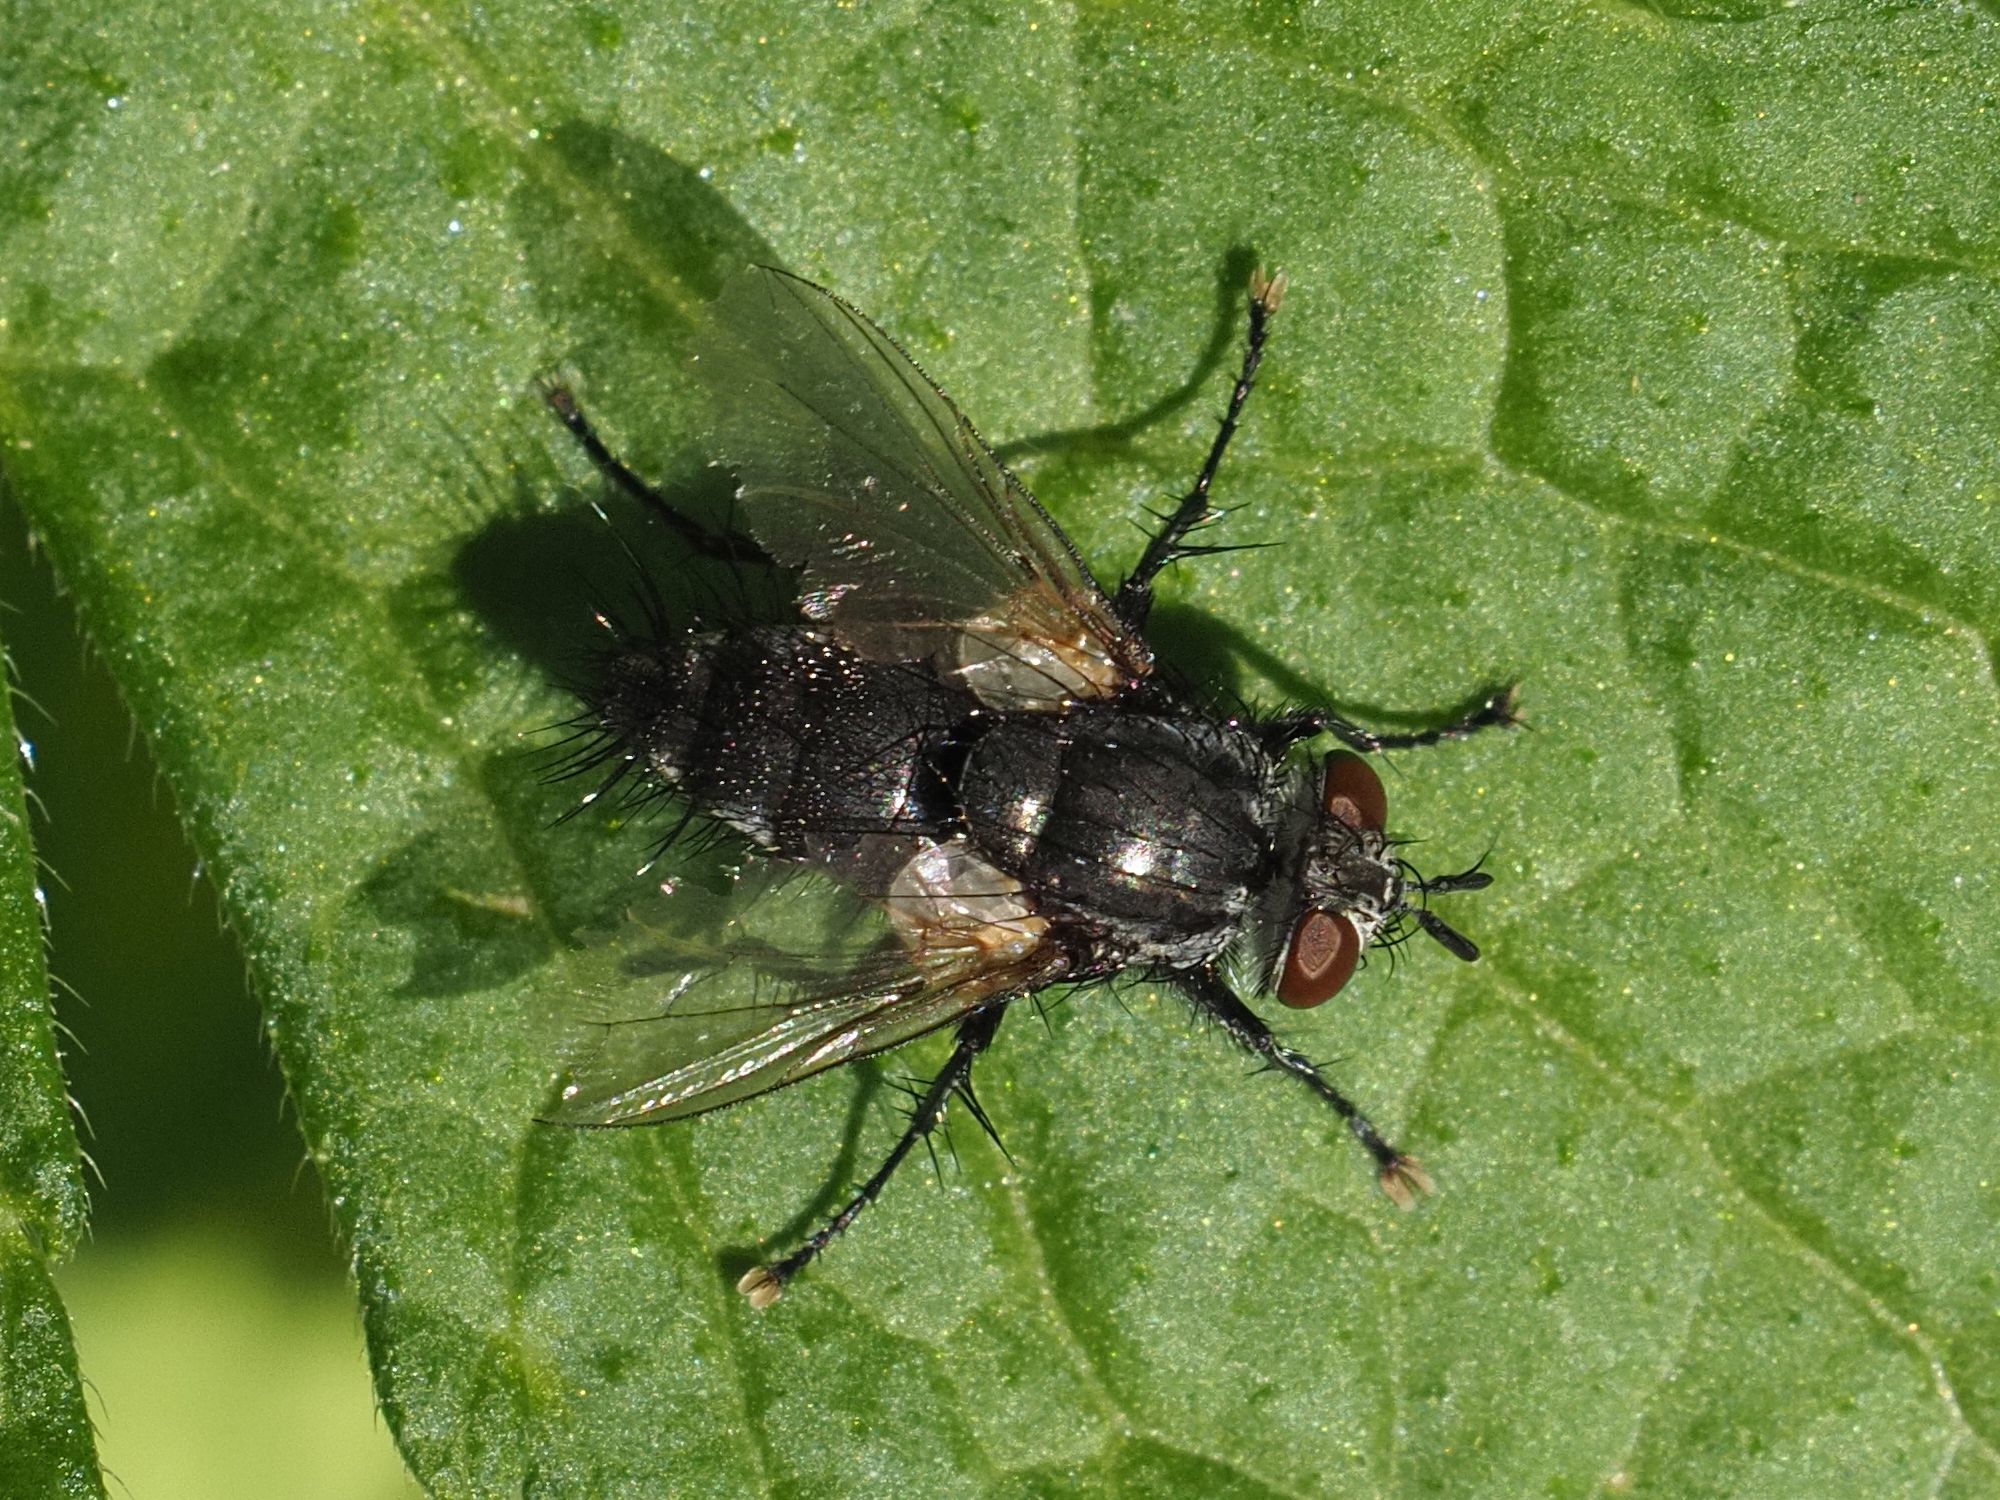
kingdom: Animalia
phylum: Arthropoda
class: Insecta
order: Diptera
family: Tachinidae
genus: Voria
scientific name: Voria ruralis
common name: Parasitic fly
